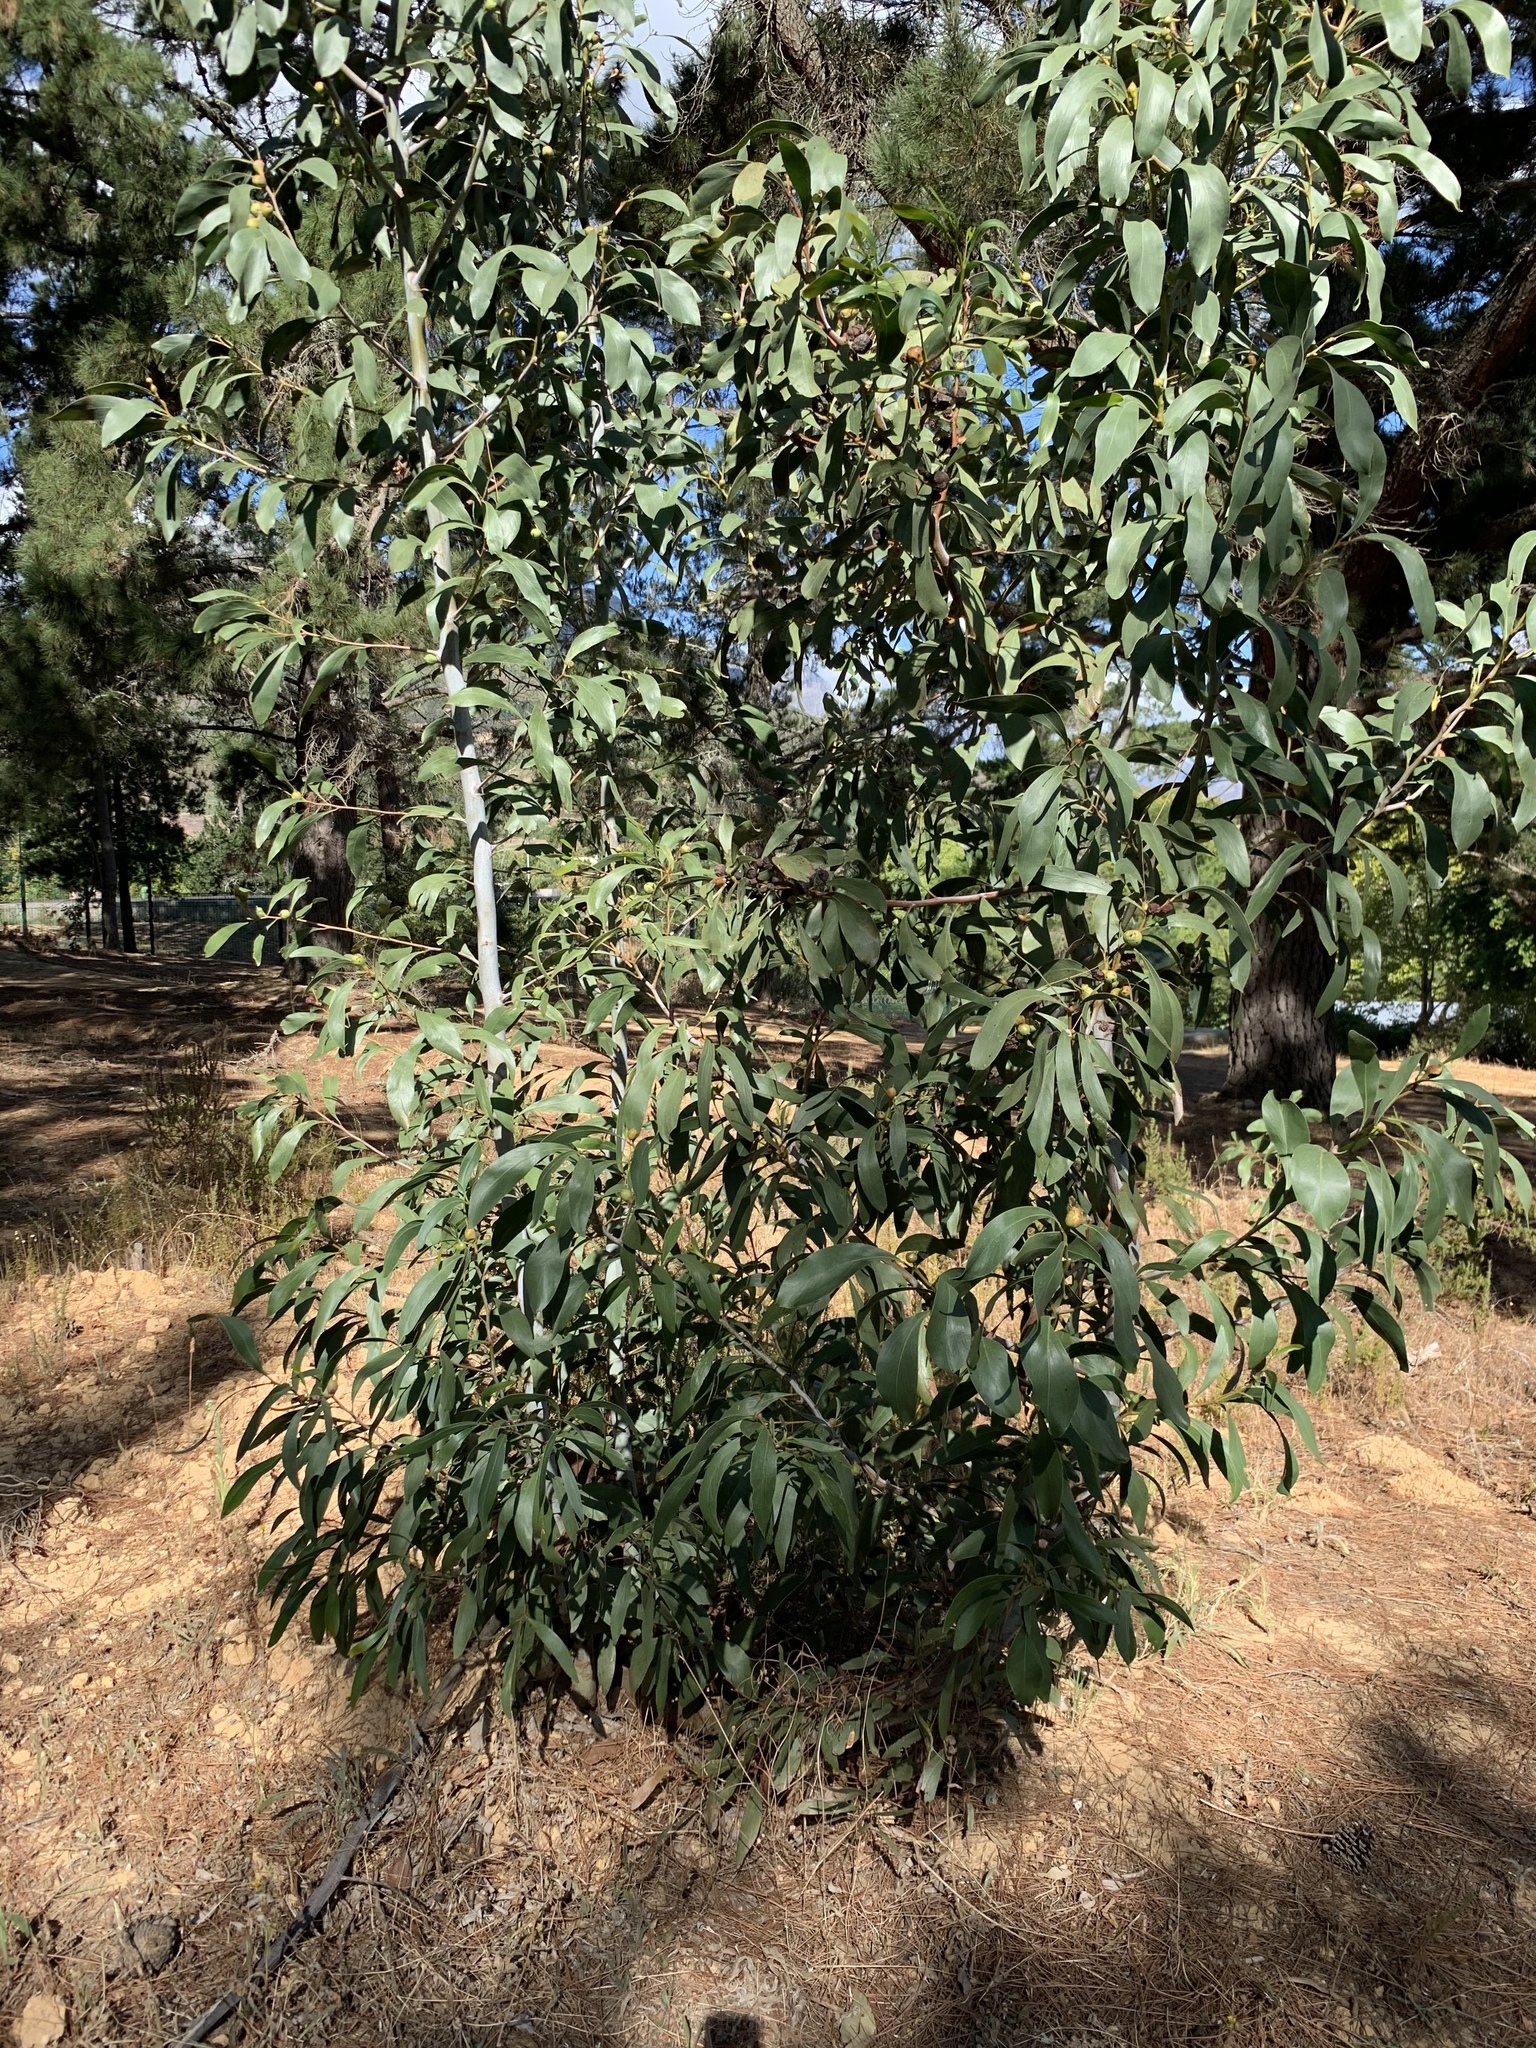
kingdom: Plantae
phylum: Tracheophyta
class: Magnoliopsida
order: Fabales
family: Fabaceae
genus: Acacia
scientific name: Acacia pycnantha
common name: Golden wattle
